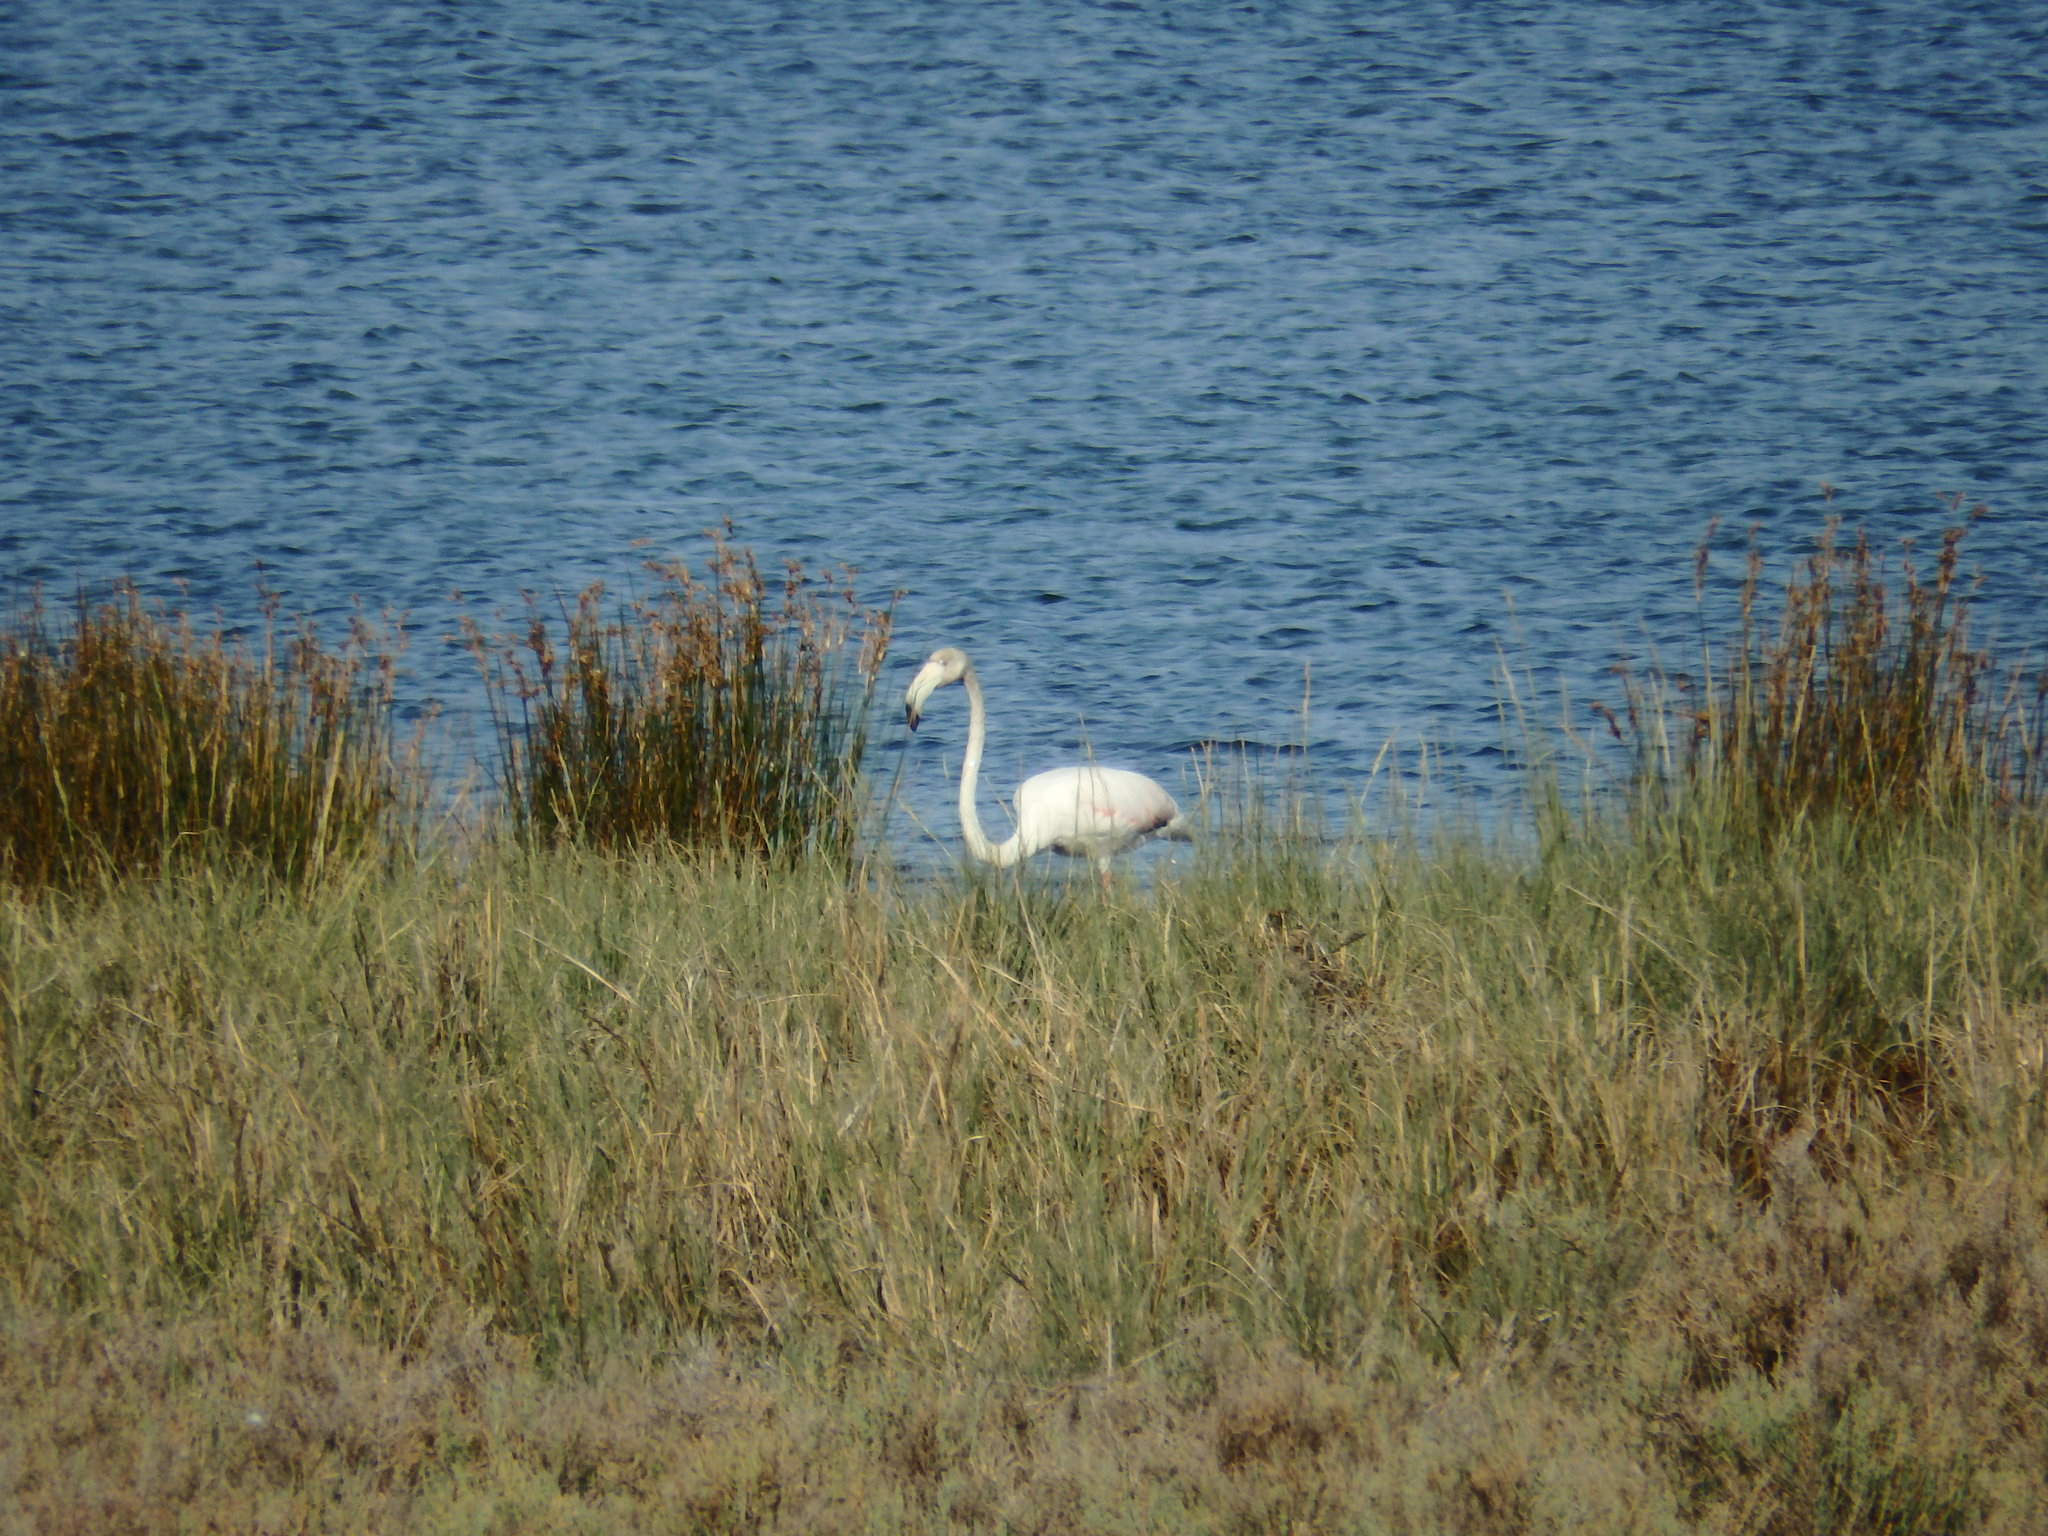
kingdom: Animalia
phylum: Chordata
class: Aves
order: Phoenicopteriformes
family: Phoenicopteridae
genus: Phoenicopterus
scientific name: Phoenicopterus roseus
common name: Greater flamingo
